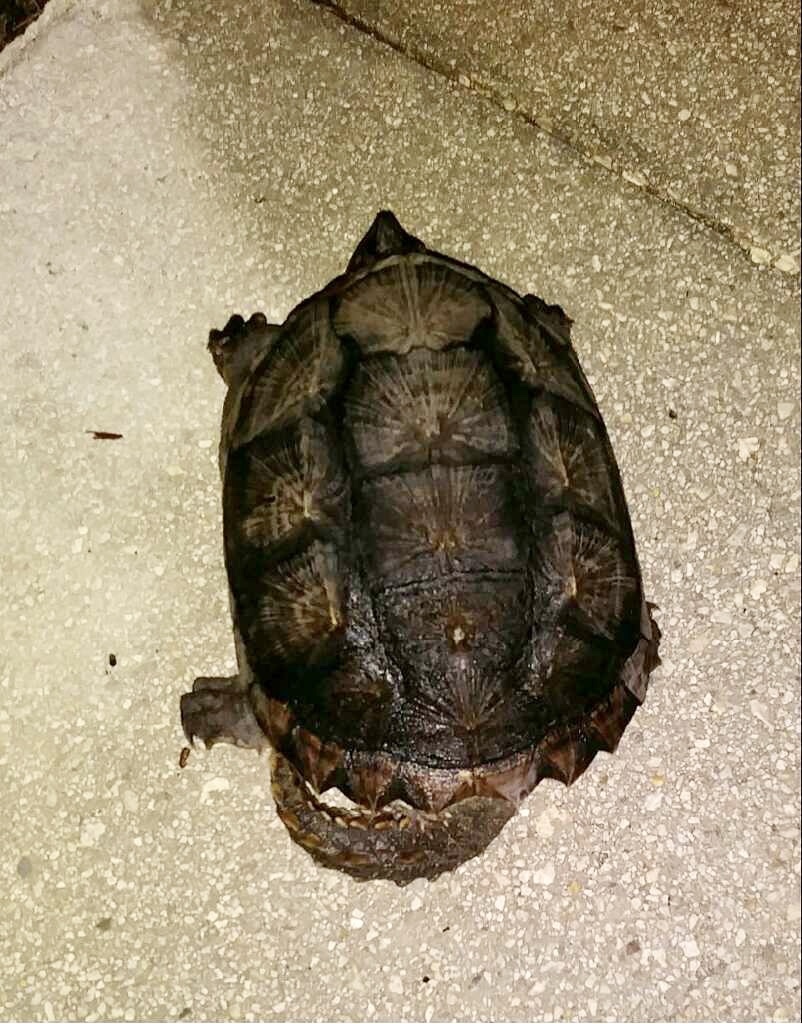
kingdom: Animalia
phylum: Chordata
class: Testudines
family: Chelydridae
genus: Chelydra
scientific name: Chelydra serpentina
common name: Common snapping turtle
